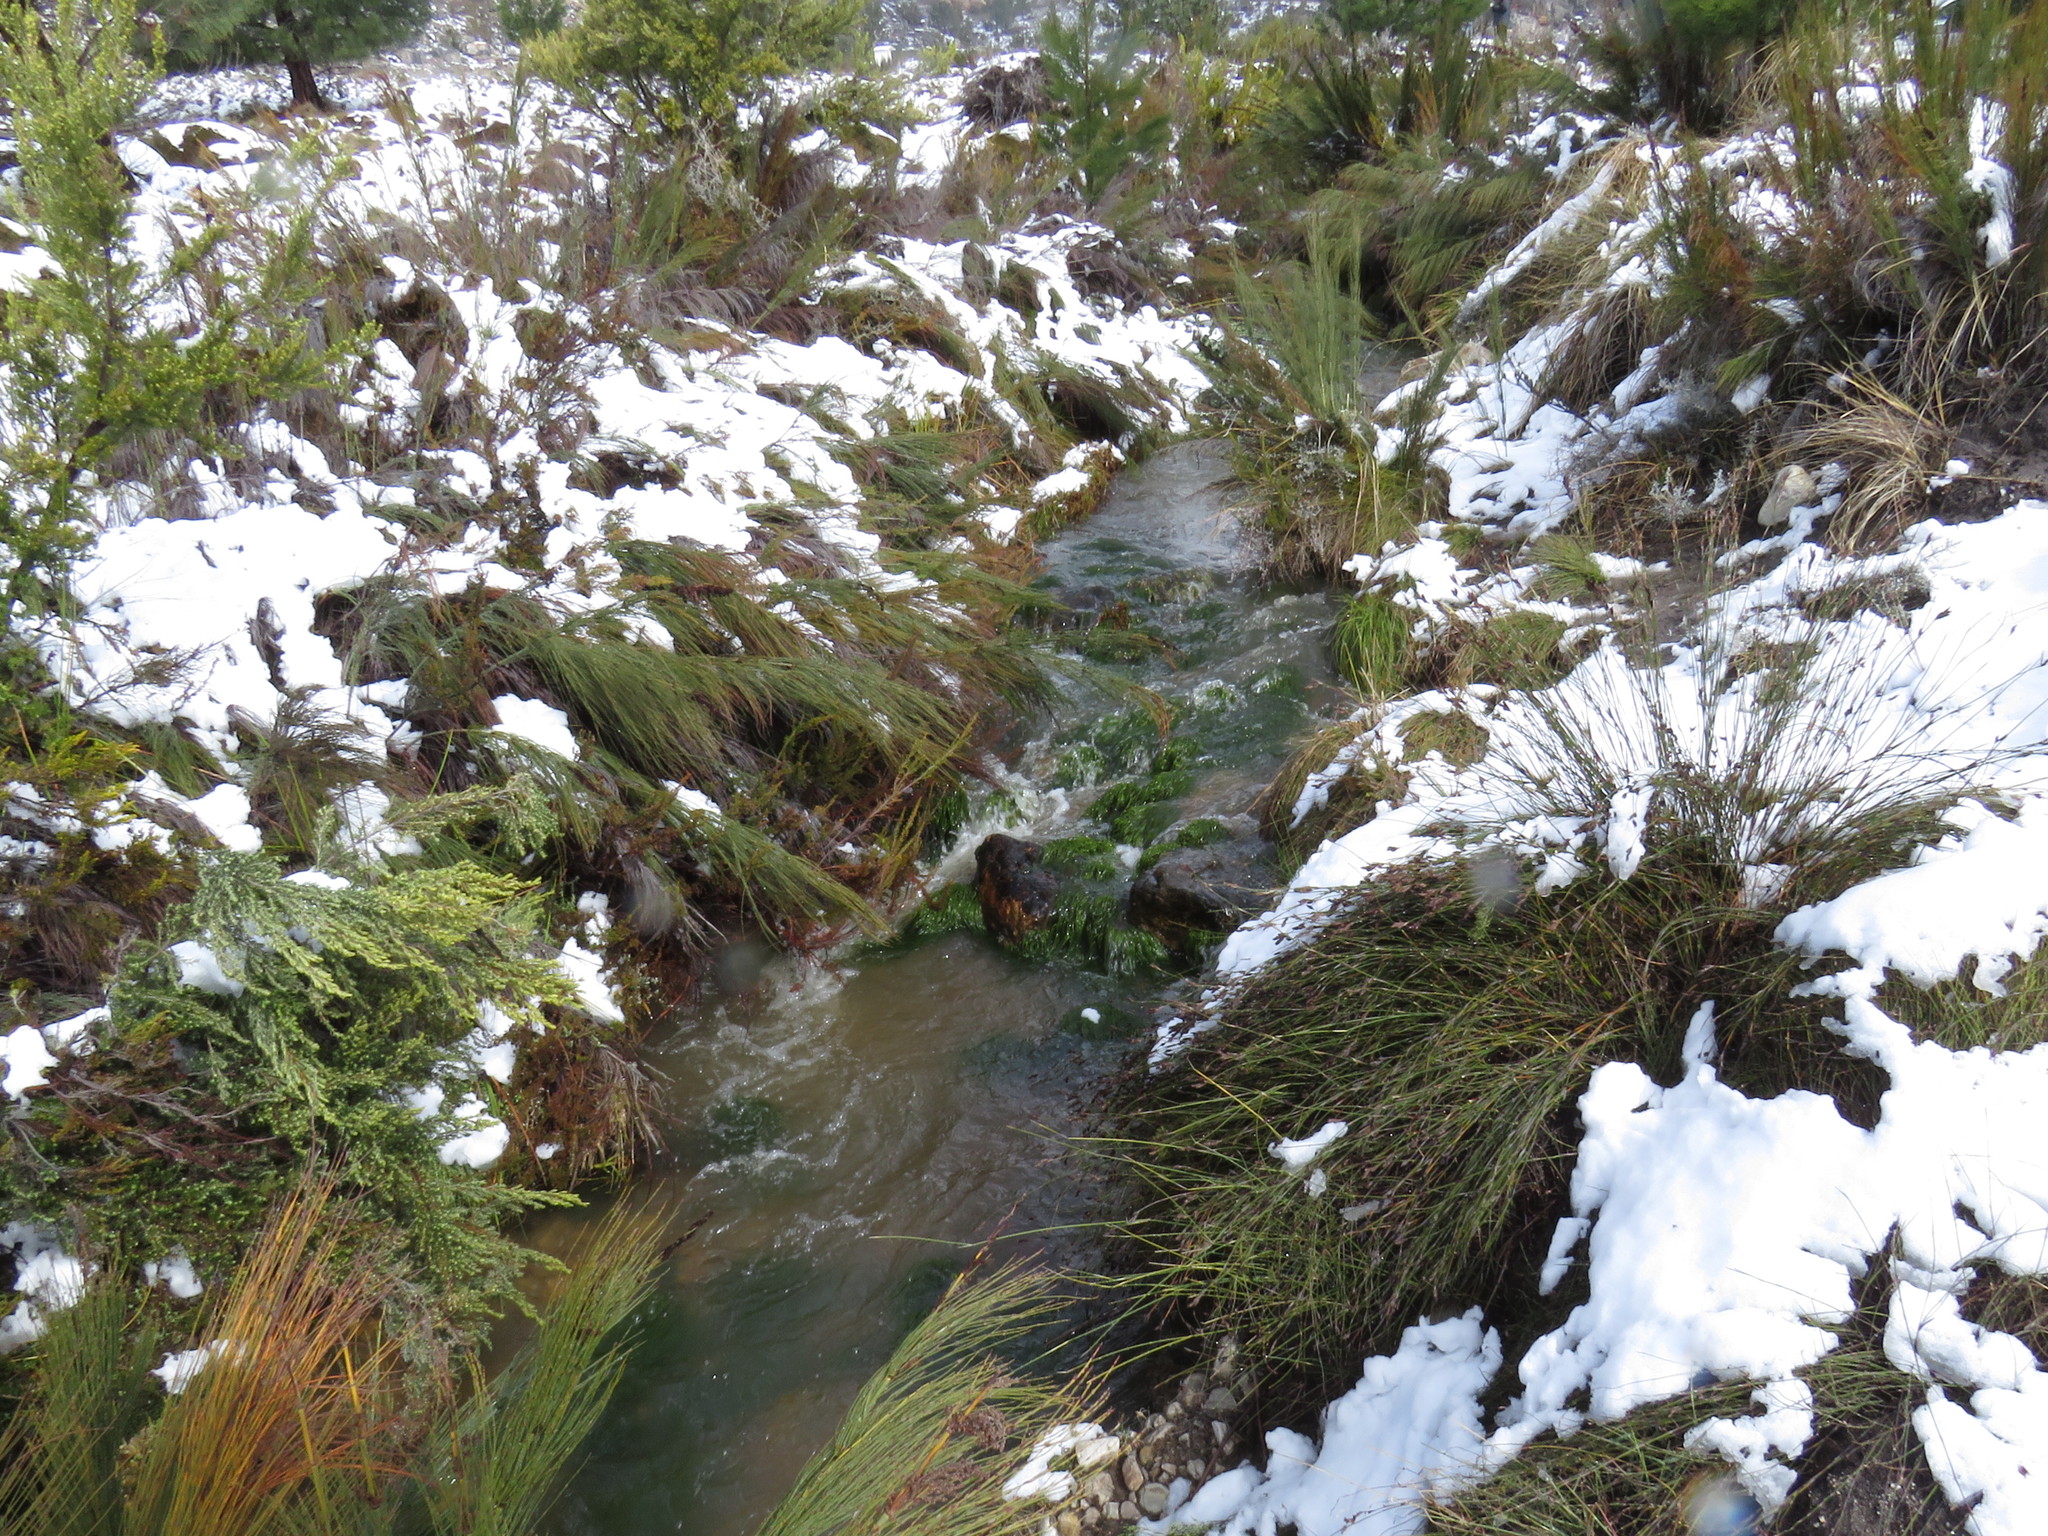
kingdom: Plantae
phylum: Tracheophyta
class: Liliopsida
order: Poales
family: Cyperaceae
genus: Isolepis
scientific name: Isolepis digitata
